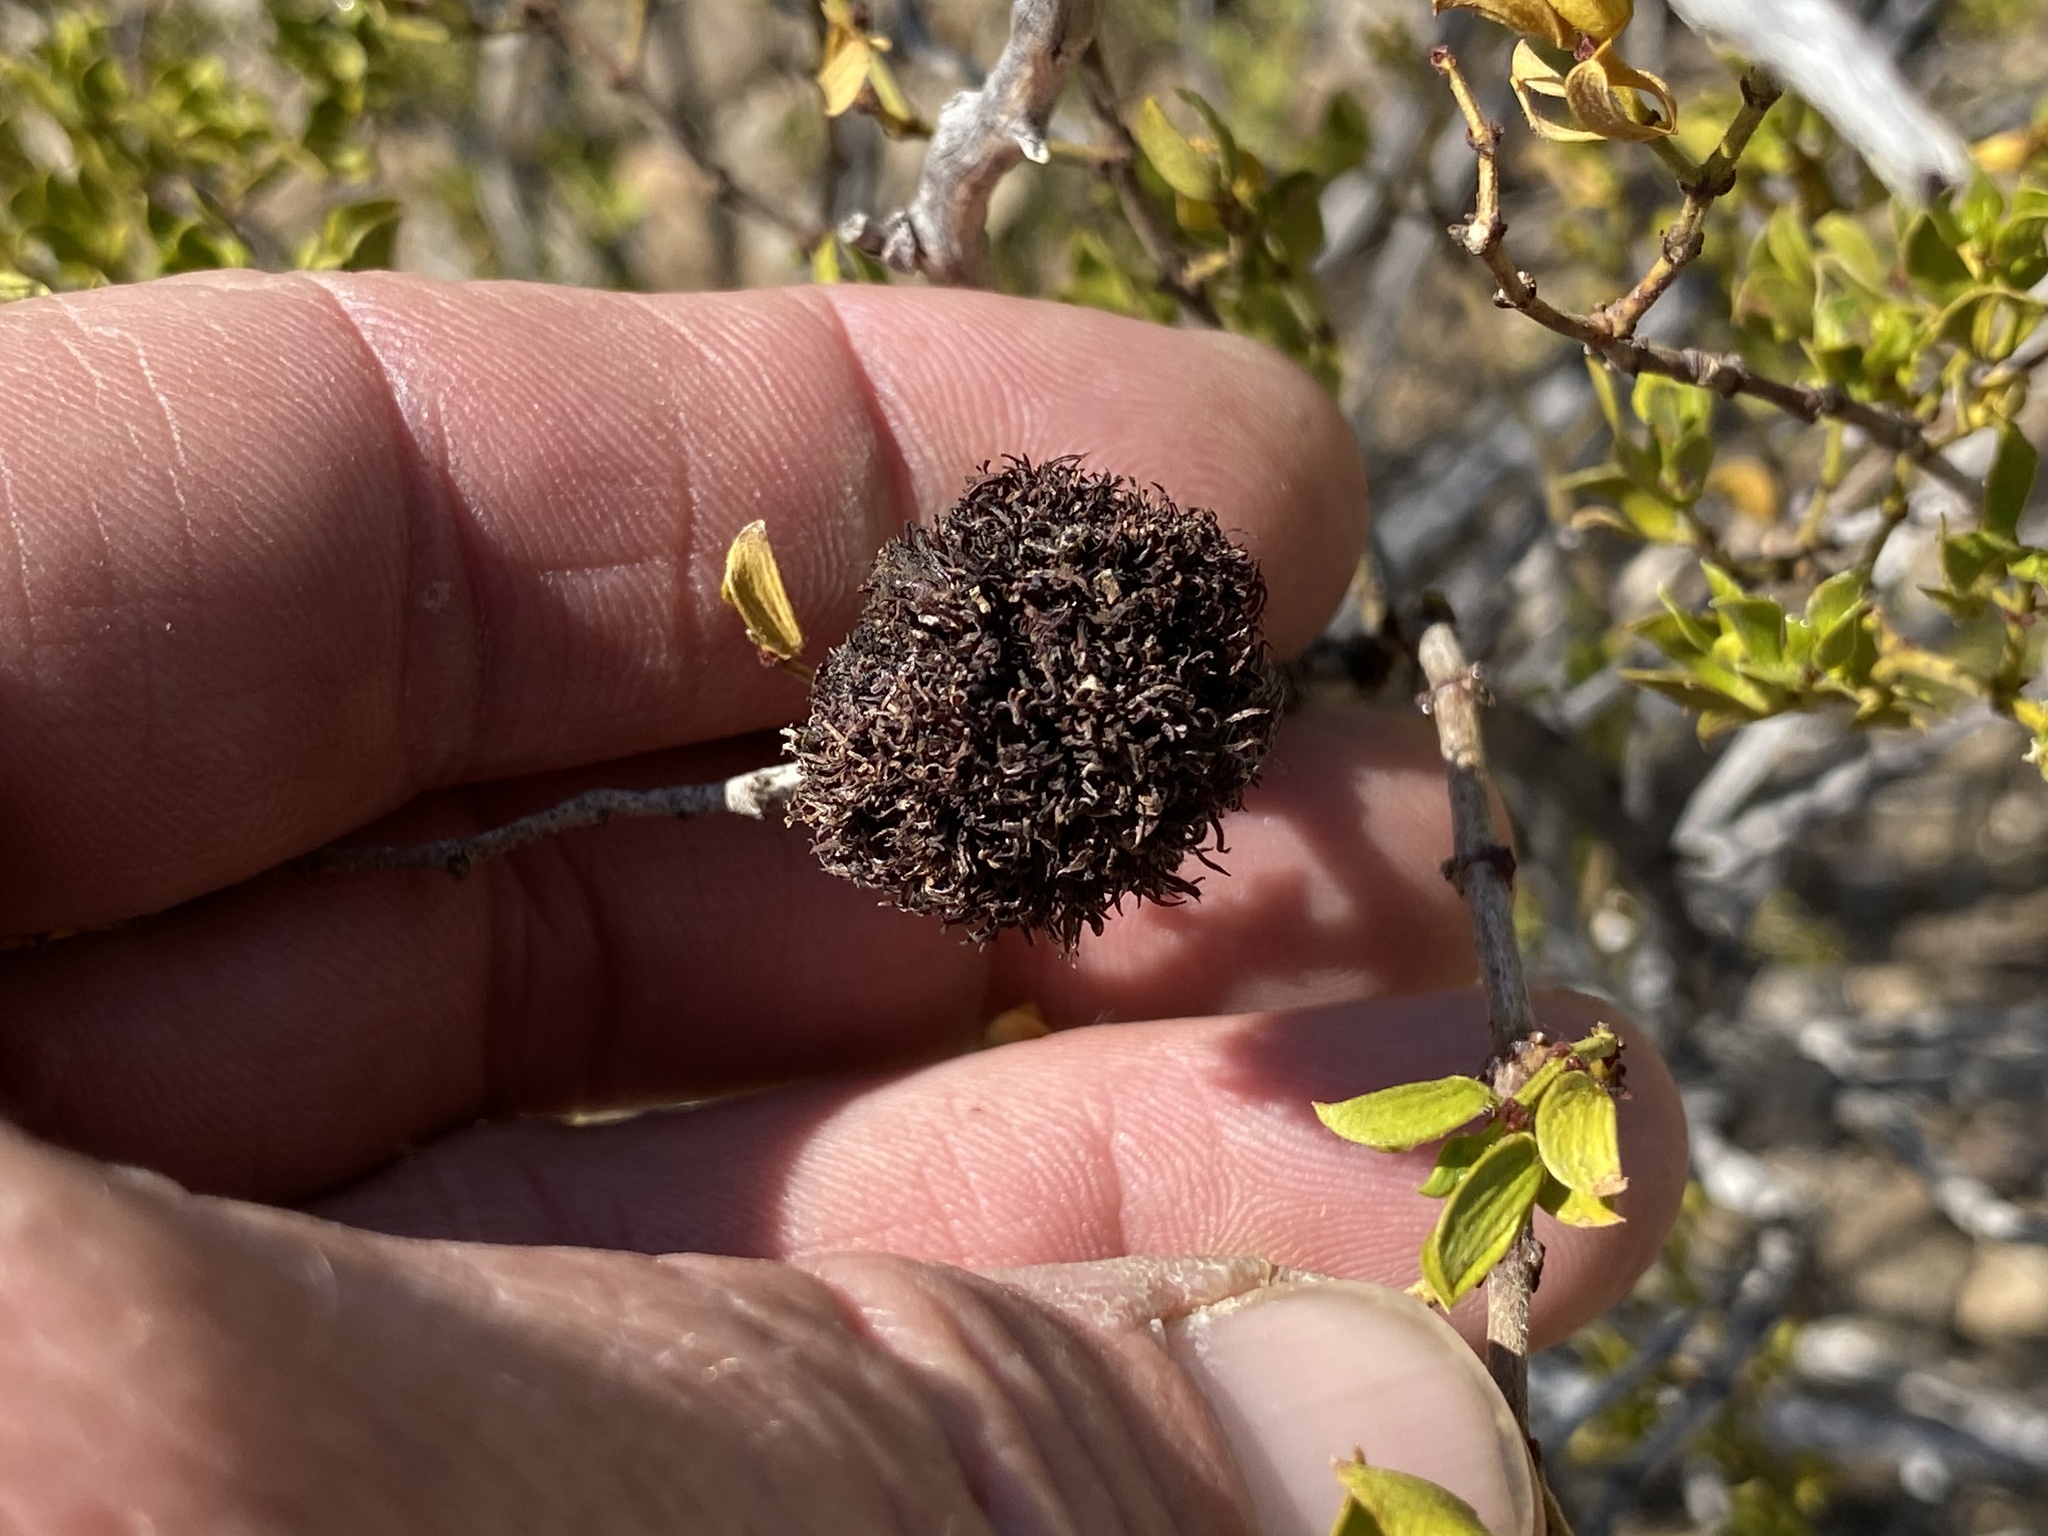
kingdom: Animalia
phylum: Arthropoda
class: Insecta
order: Diptera
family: Cecidomyiidae
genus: Asphondylia
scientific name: Asphondylia auripila
